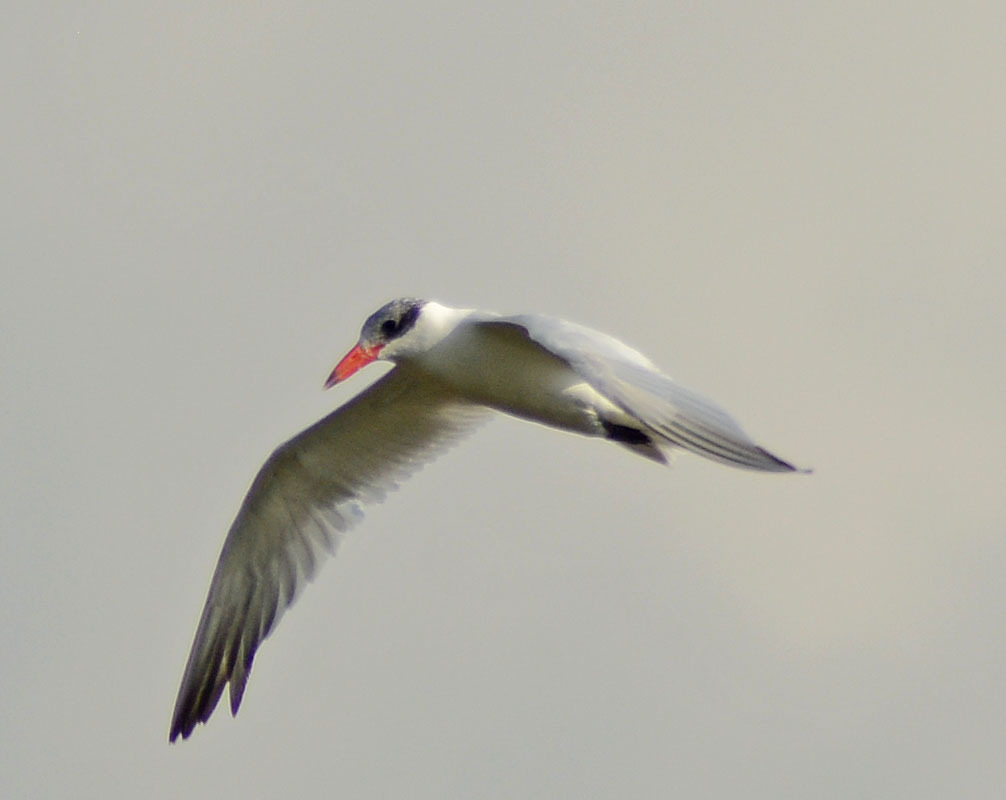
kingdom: Animalia
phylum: Chordata
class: Aves
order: Charadriiformes
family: Laridae
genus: Hydroprogne
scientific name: Hydroprogne caspia
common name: Caspian tern
